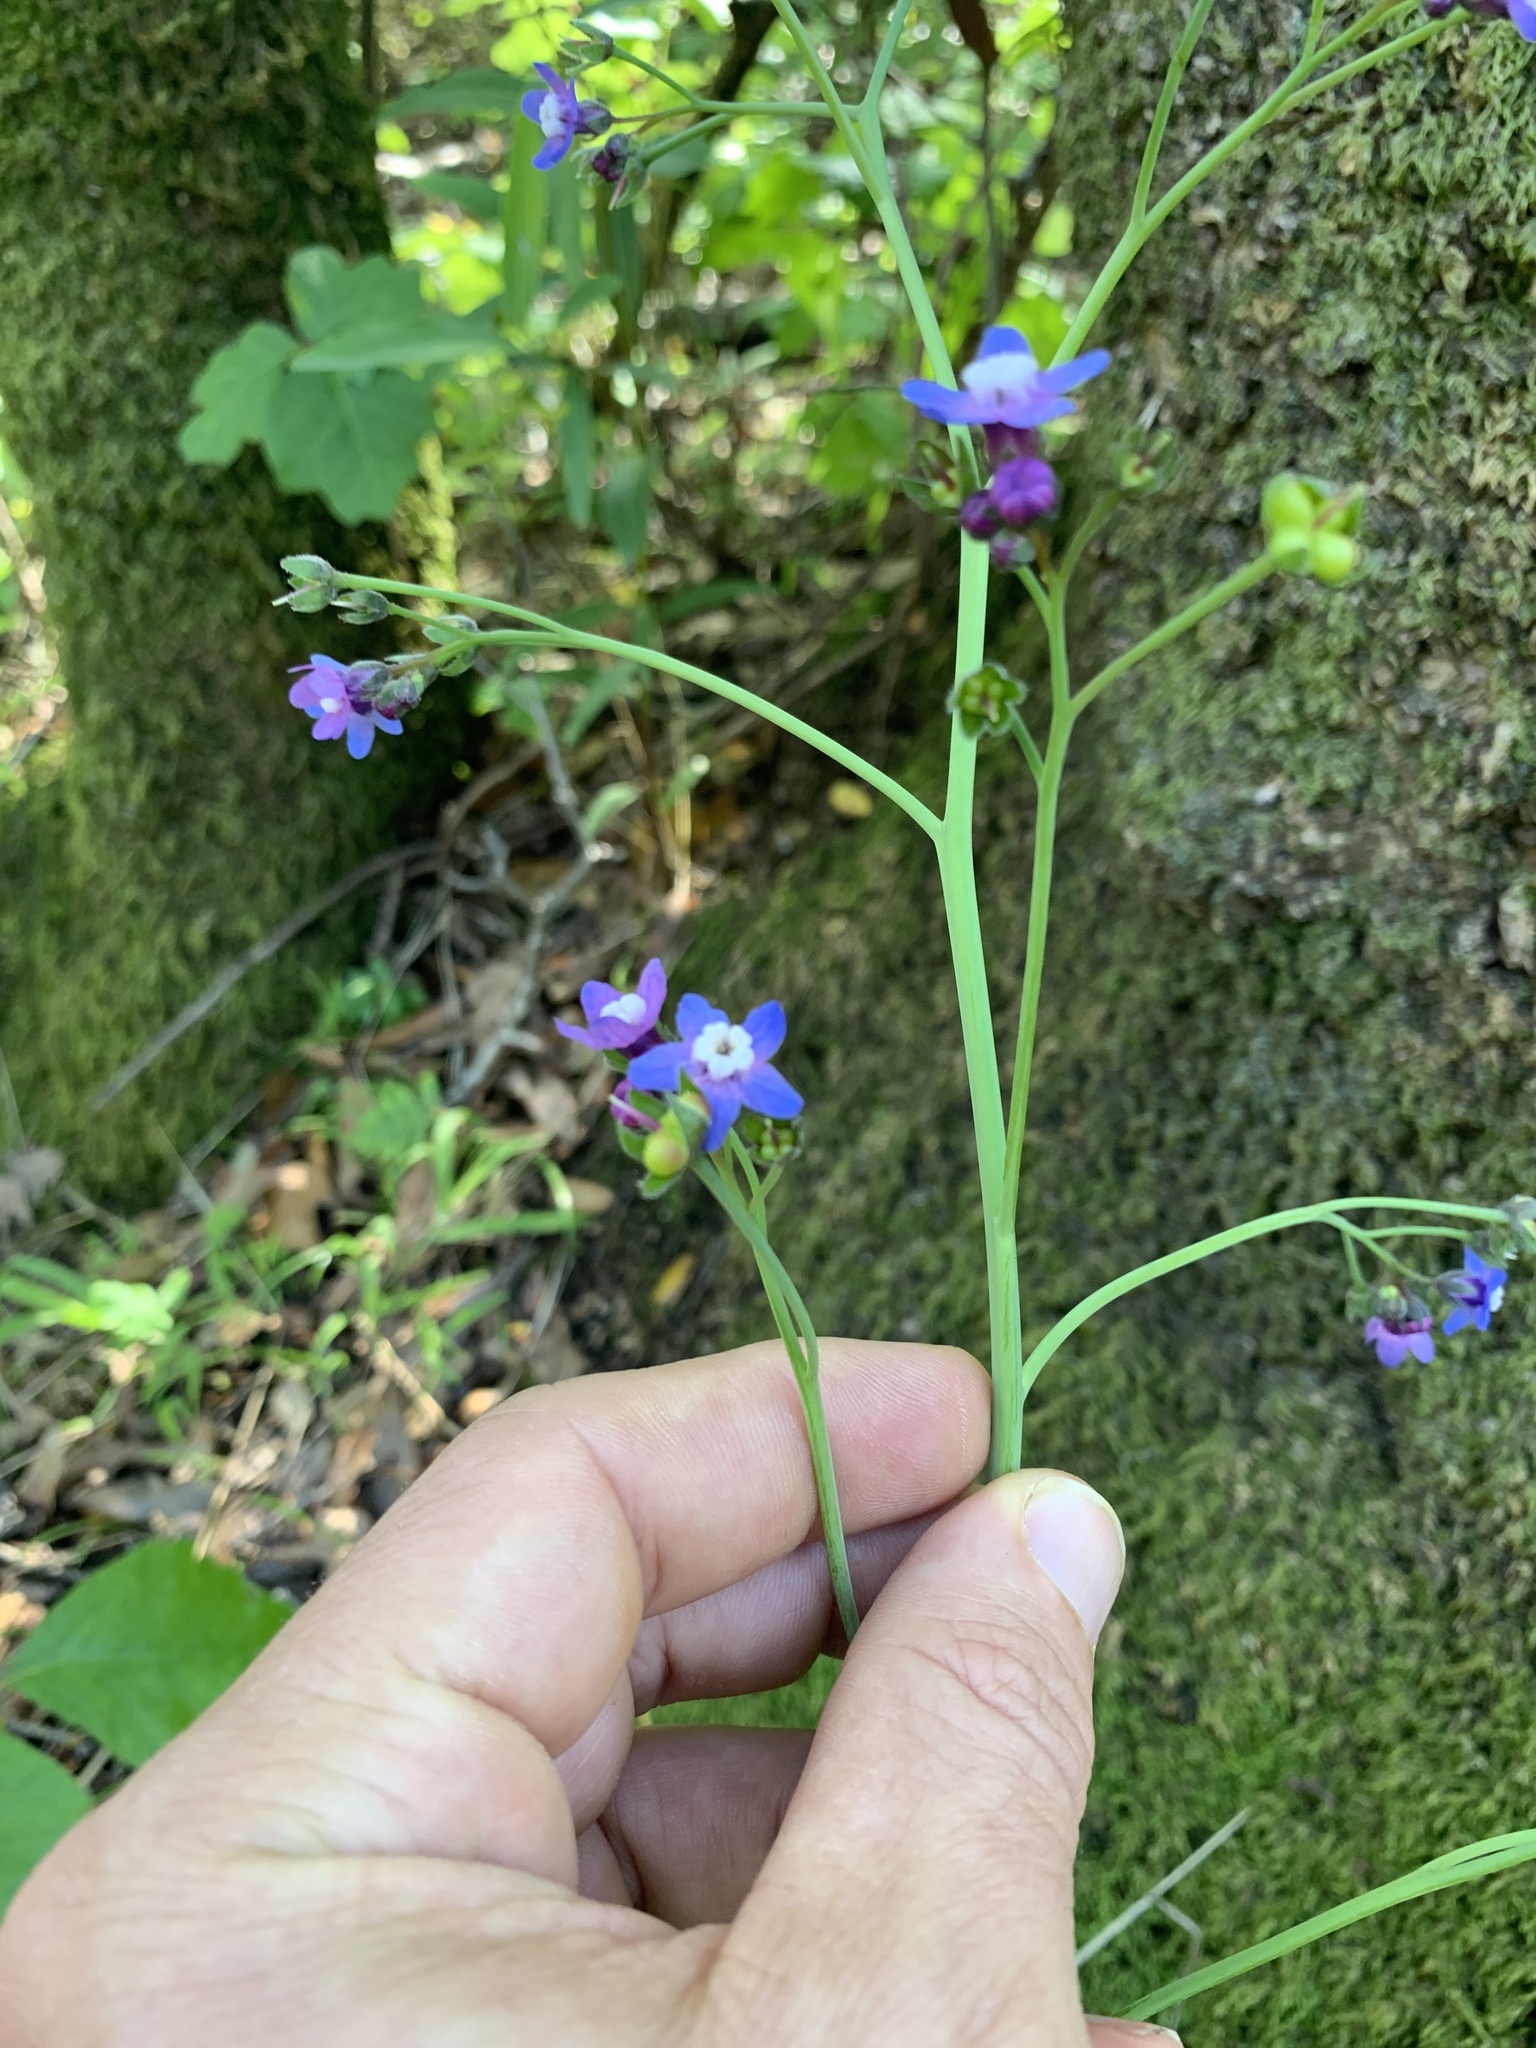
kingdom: Plantae
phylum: Tracheophyta
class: Magnoliopsida
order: Boraginales
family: Boraginaceae
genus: Adelinia
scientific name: Adelinia grande
